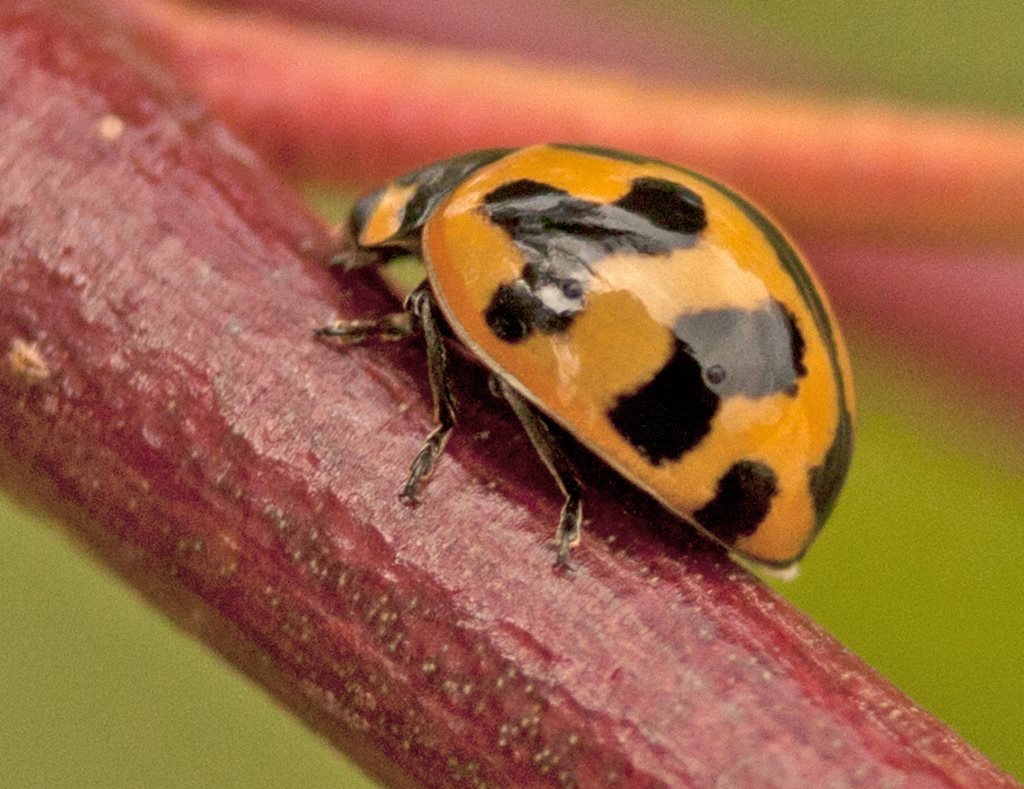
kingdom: Animalia
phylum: Arthropoda
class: Insecta
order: Coleoptera
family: Coccinellidae
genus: Coccinella
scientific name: Coccinella transversalis
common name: Transverse lady beetle
